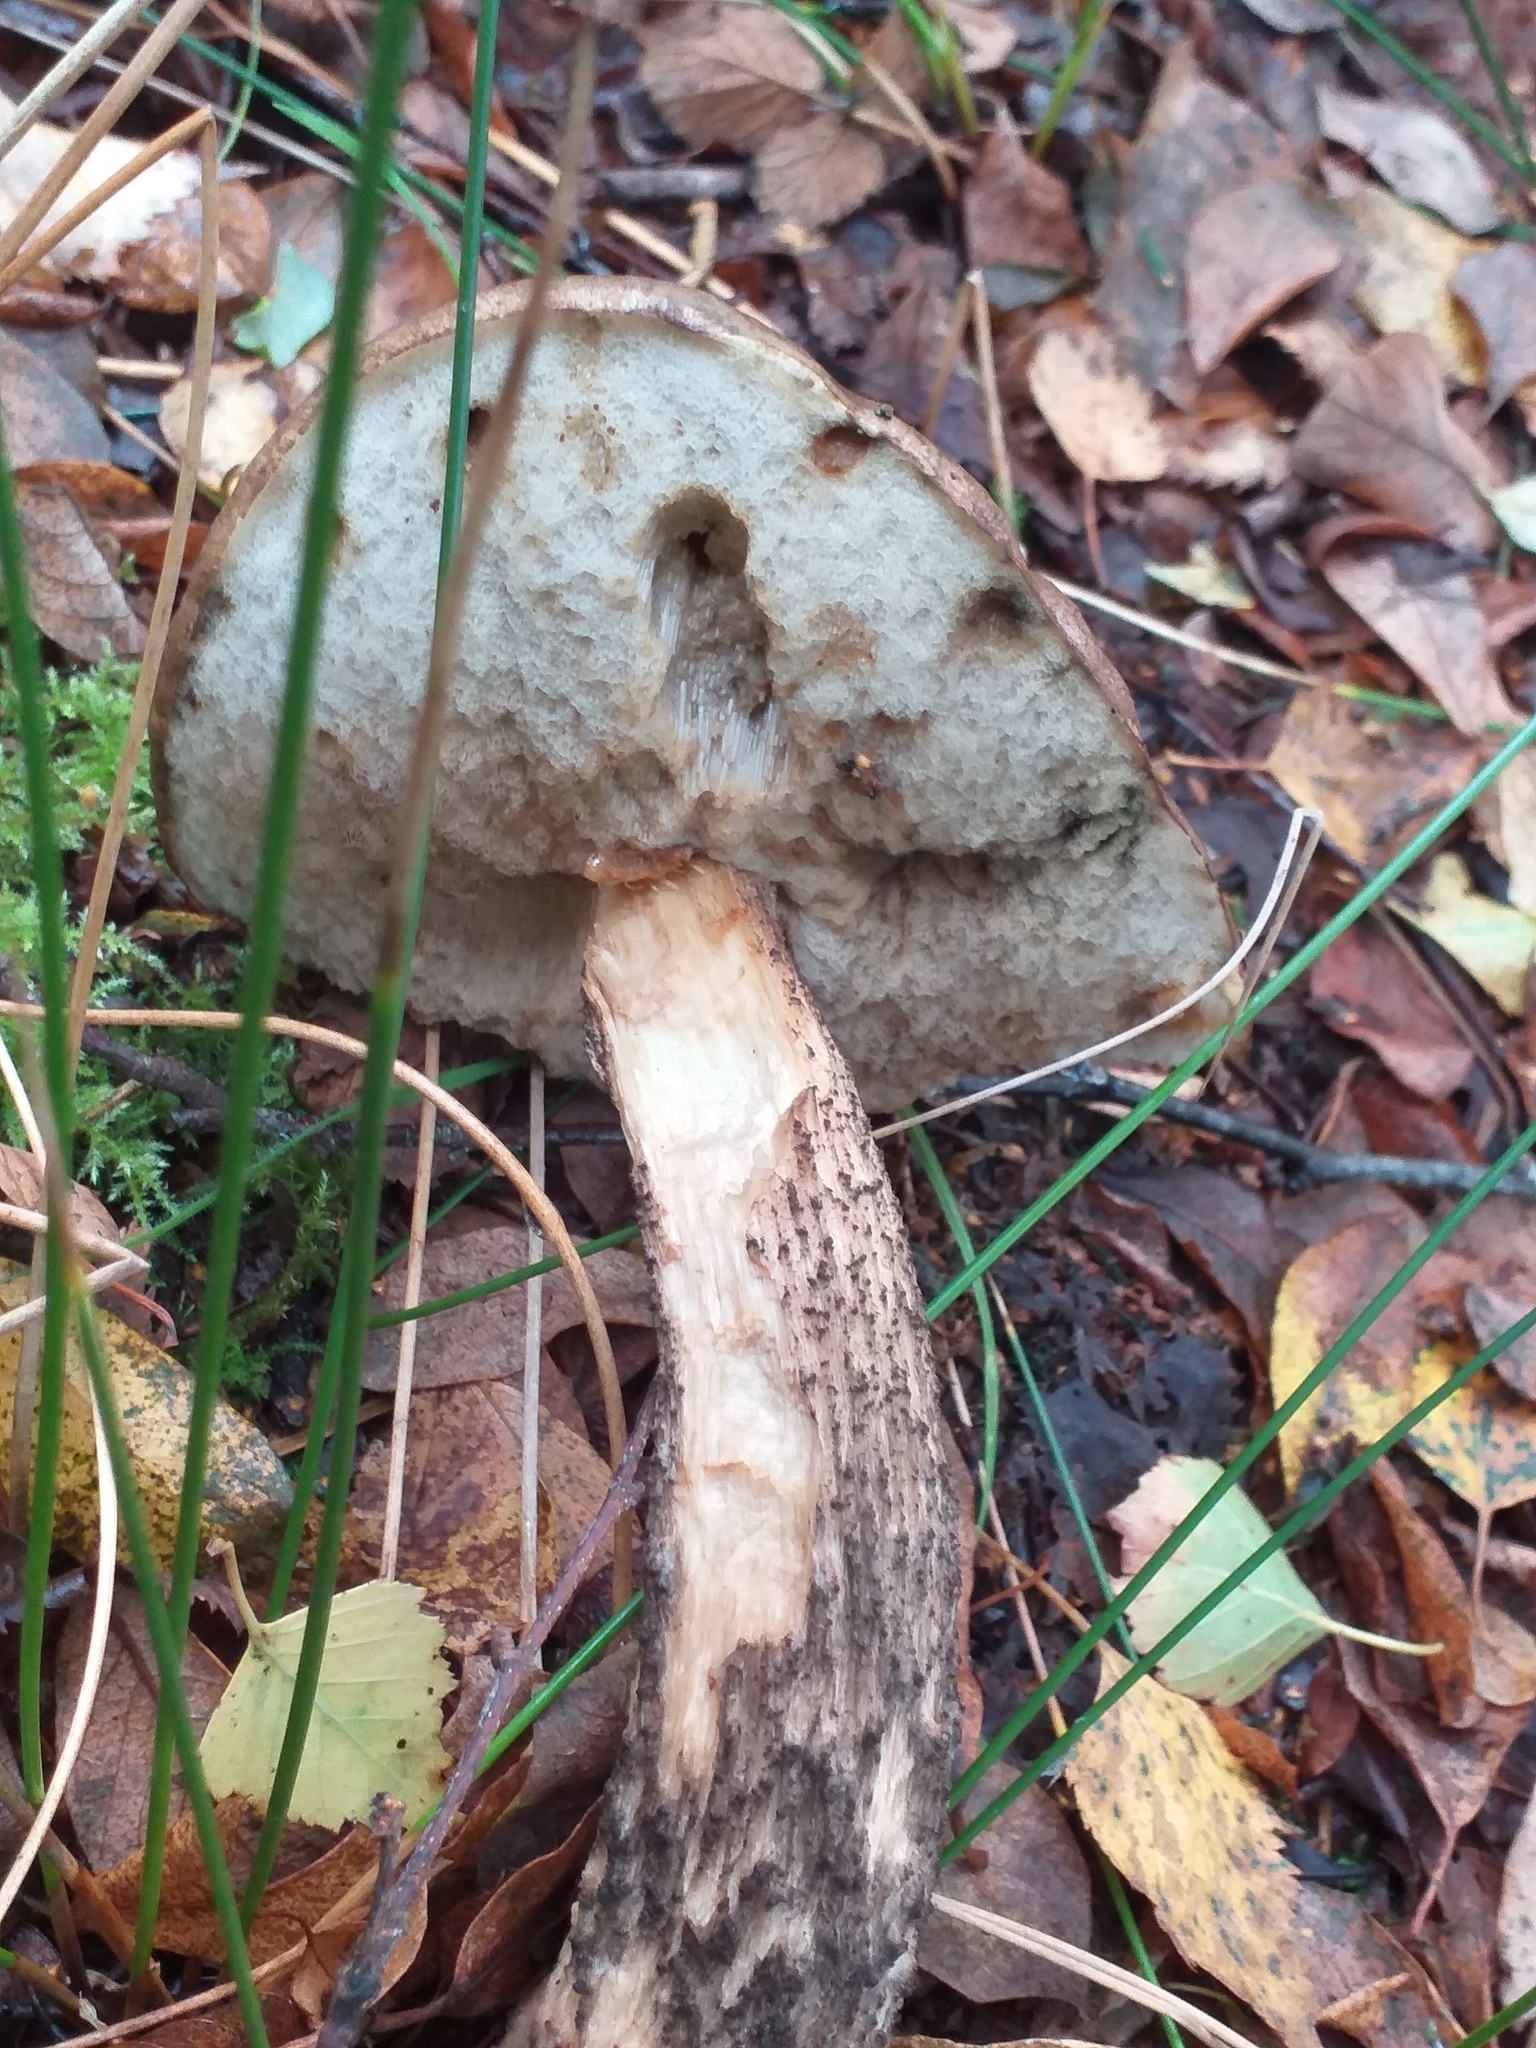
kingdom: Fungi
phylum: Basidiomycota
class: Agaricomycetes
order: Boletales
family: Boletaceae
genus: Leccinum
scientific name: Leccinum scabrum
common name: Blushing bolete
